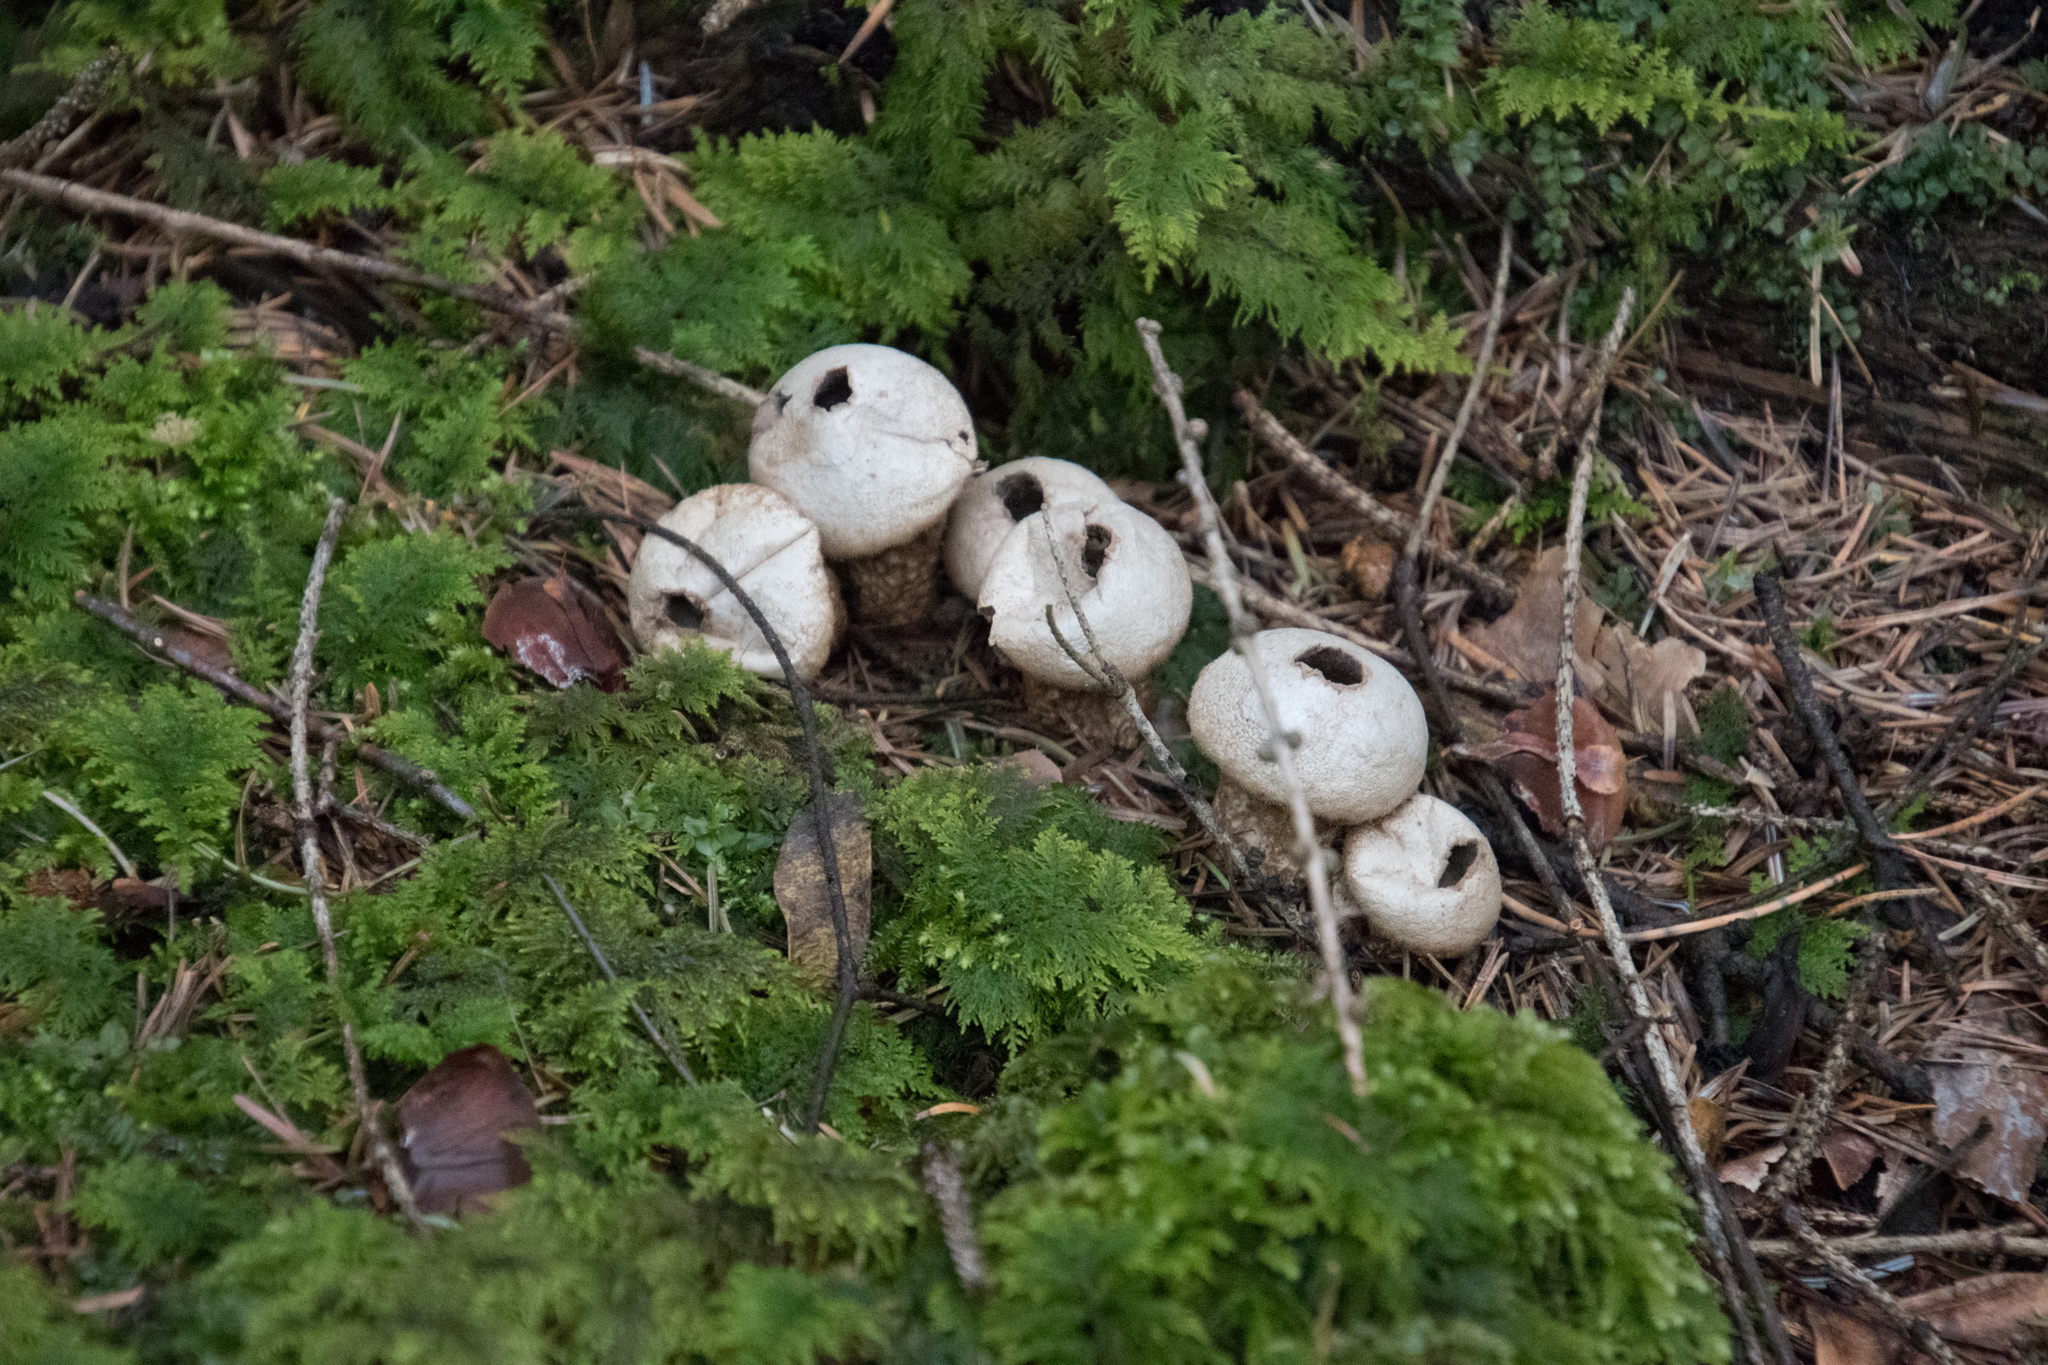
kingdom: Fungi
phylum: Basidiomycota
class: Agaricomycetes
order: Agaricales
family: Lycoperdaceae
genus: Apioperdon
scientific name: Apioperdon pyriforme
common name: Pear-shaped puffball
